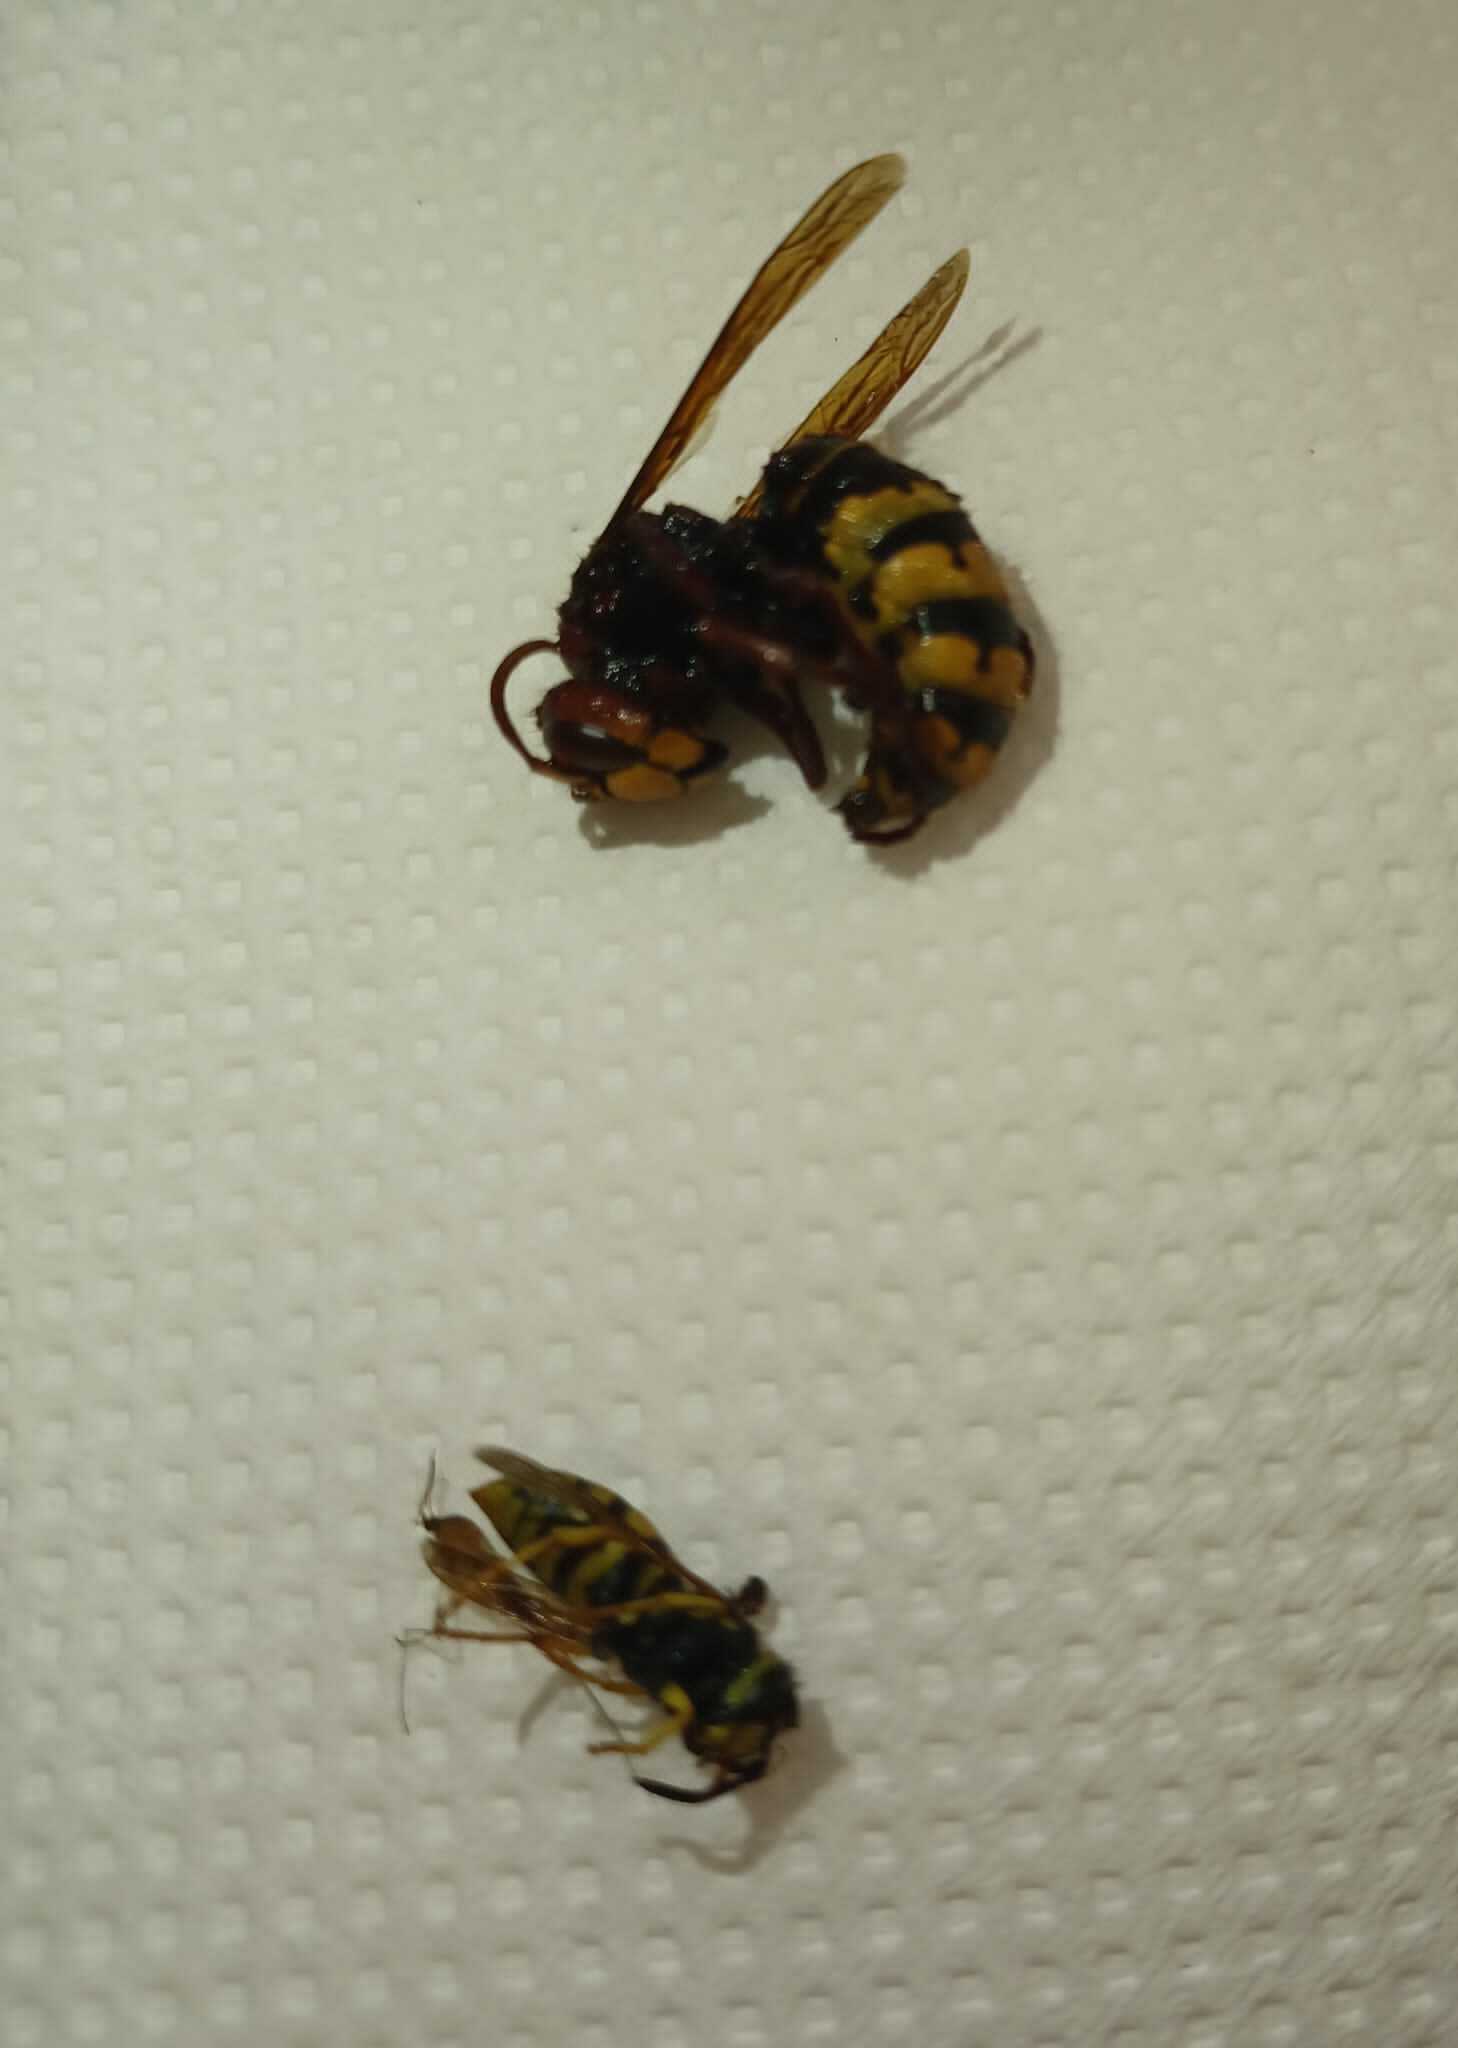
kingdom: Animalia
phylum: Arthropoda
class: Insecta
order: Hymenoptera
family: Vespidae
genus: Vespa
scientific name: Vespa crabro
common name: Hornet
